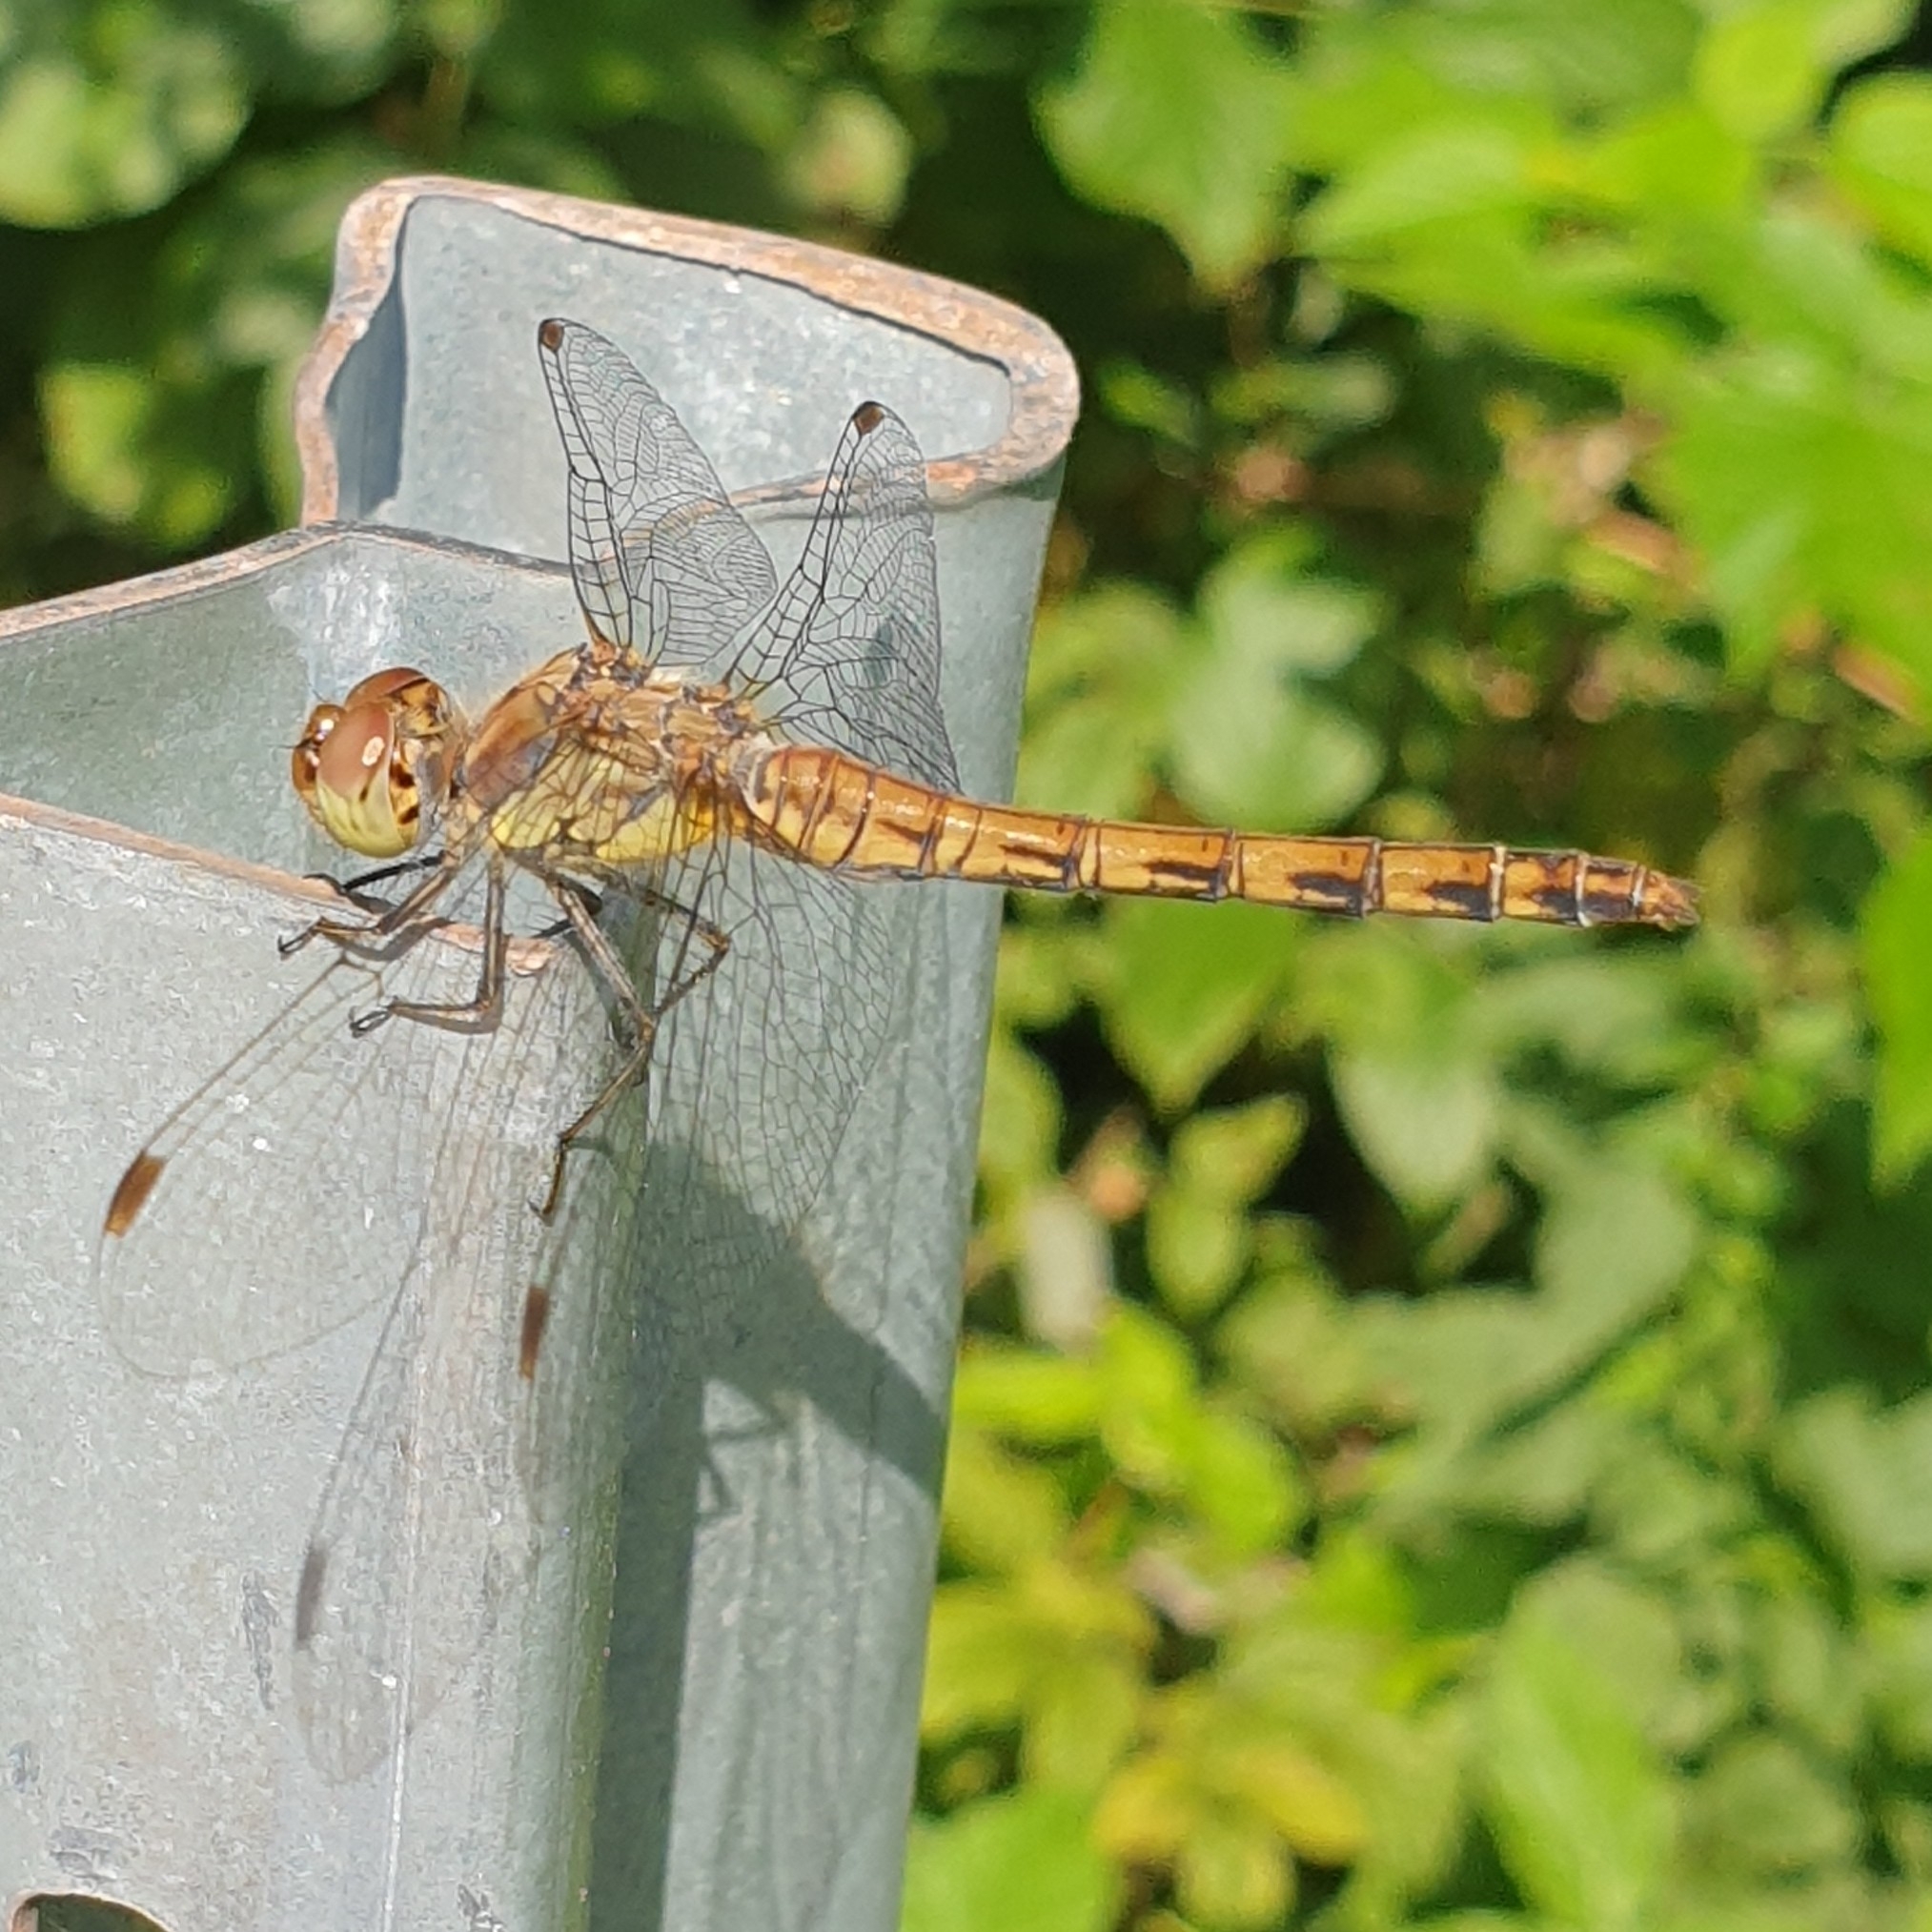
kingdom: Animalia
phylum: Arthropoda
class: Insecta
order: Odonata
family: Libellulidae
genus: Sympetrum
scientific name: Sympetrum striolatum
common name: Common darter
